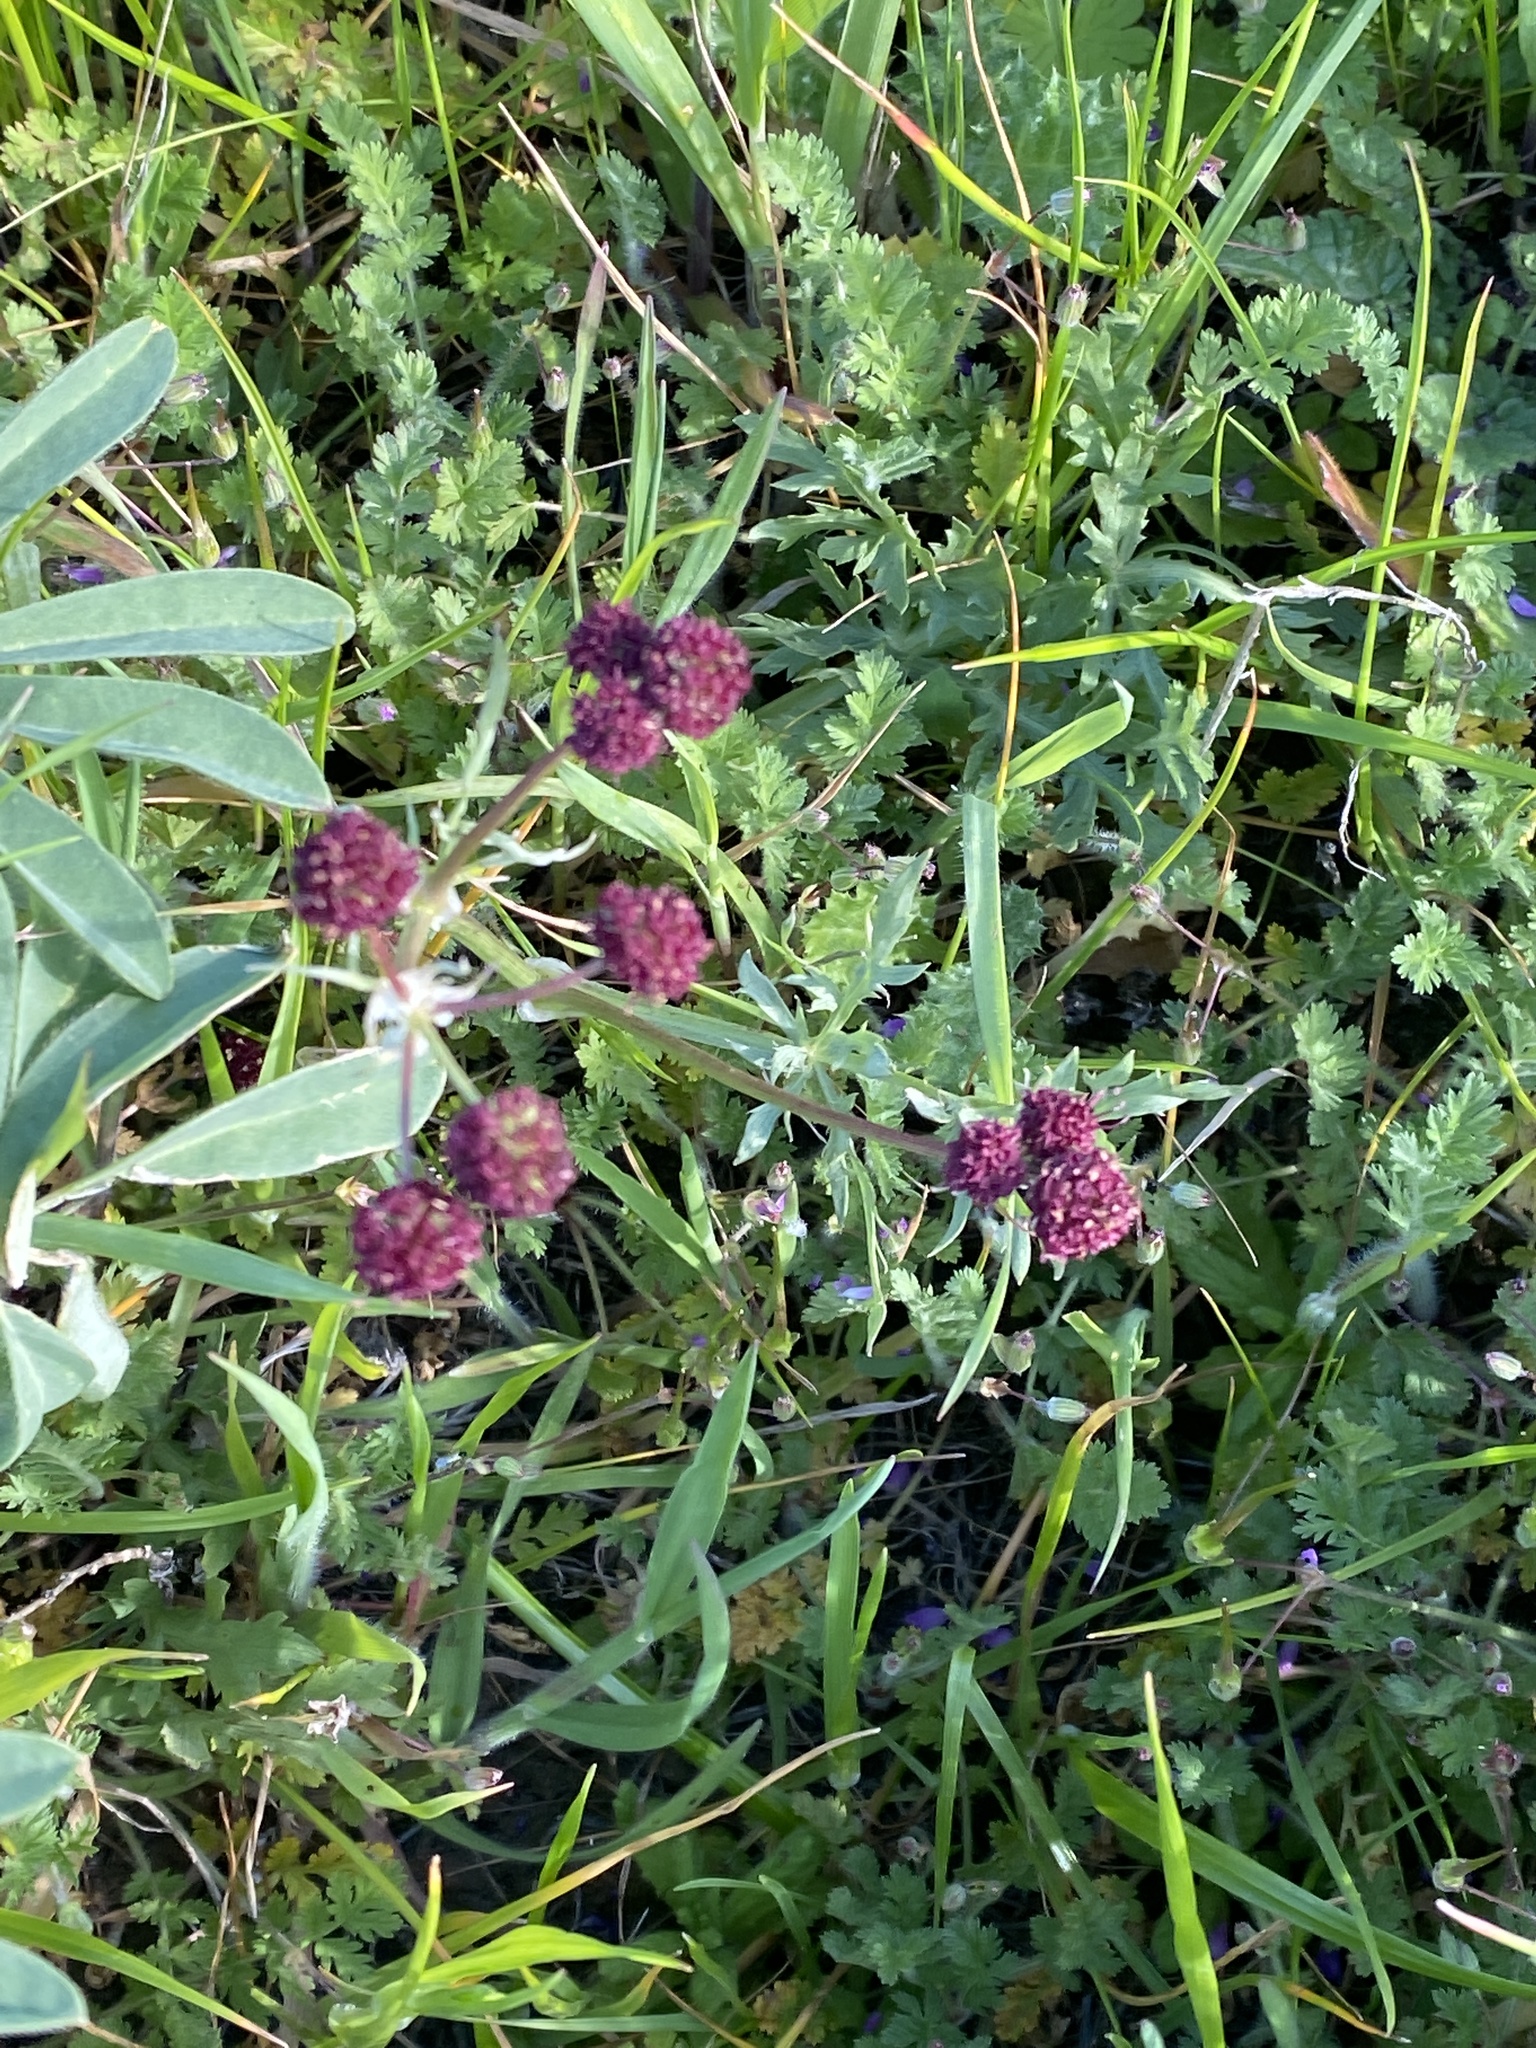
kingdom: Plantae
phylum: Tracheophyta
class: Magnoliopsida
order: Apiales
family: Apiaceae
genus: Sanicula
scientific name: Sanicula bipinnatifida
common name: Shoe-buttons
